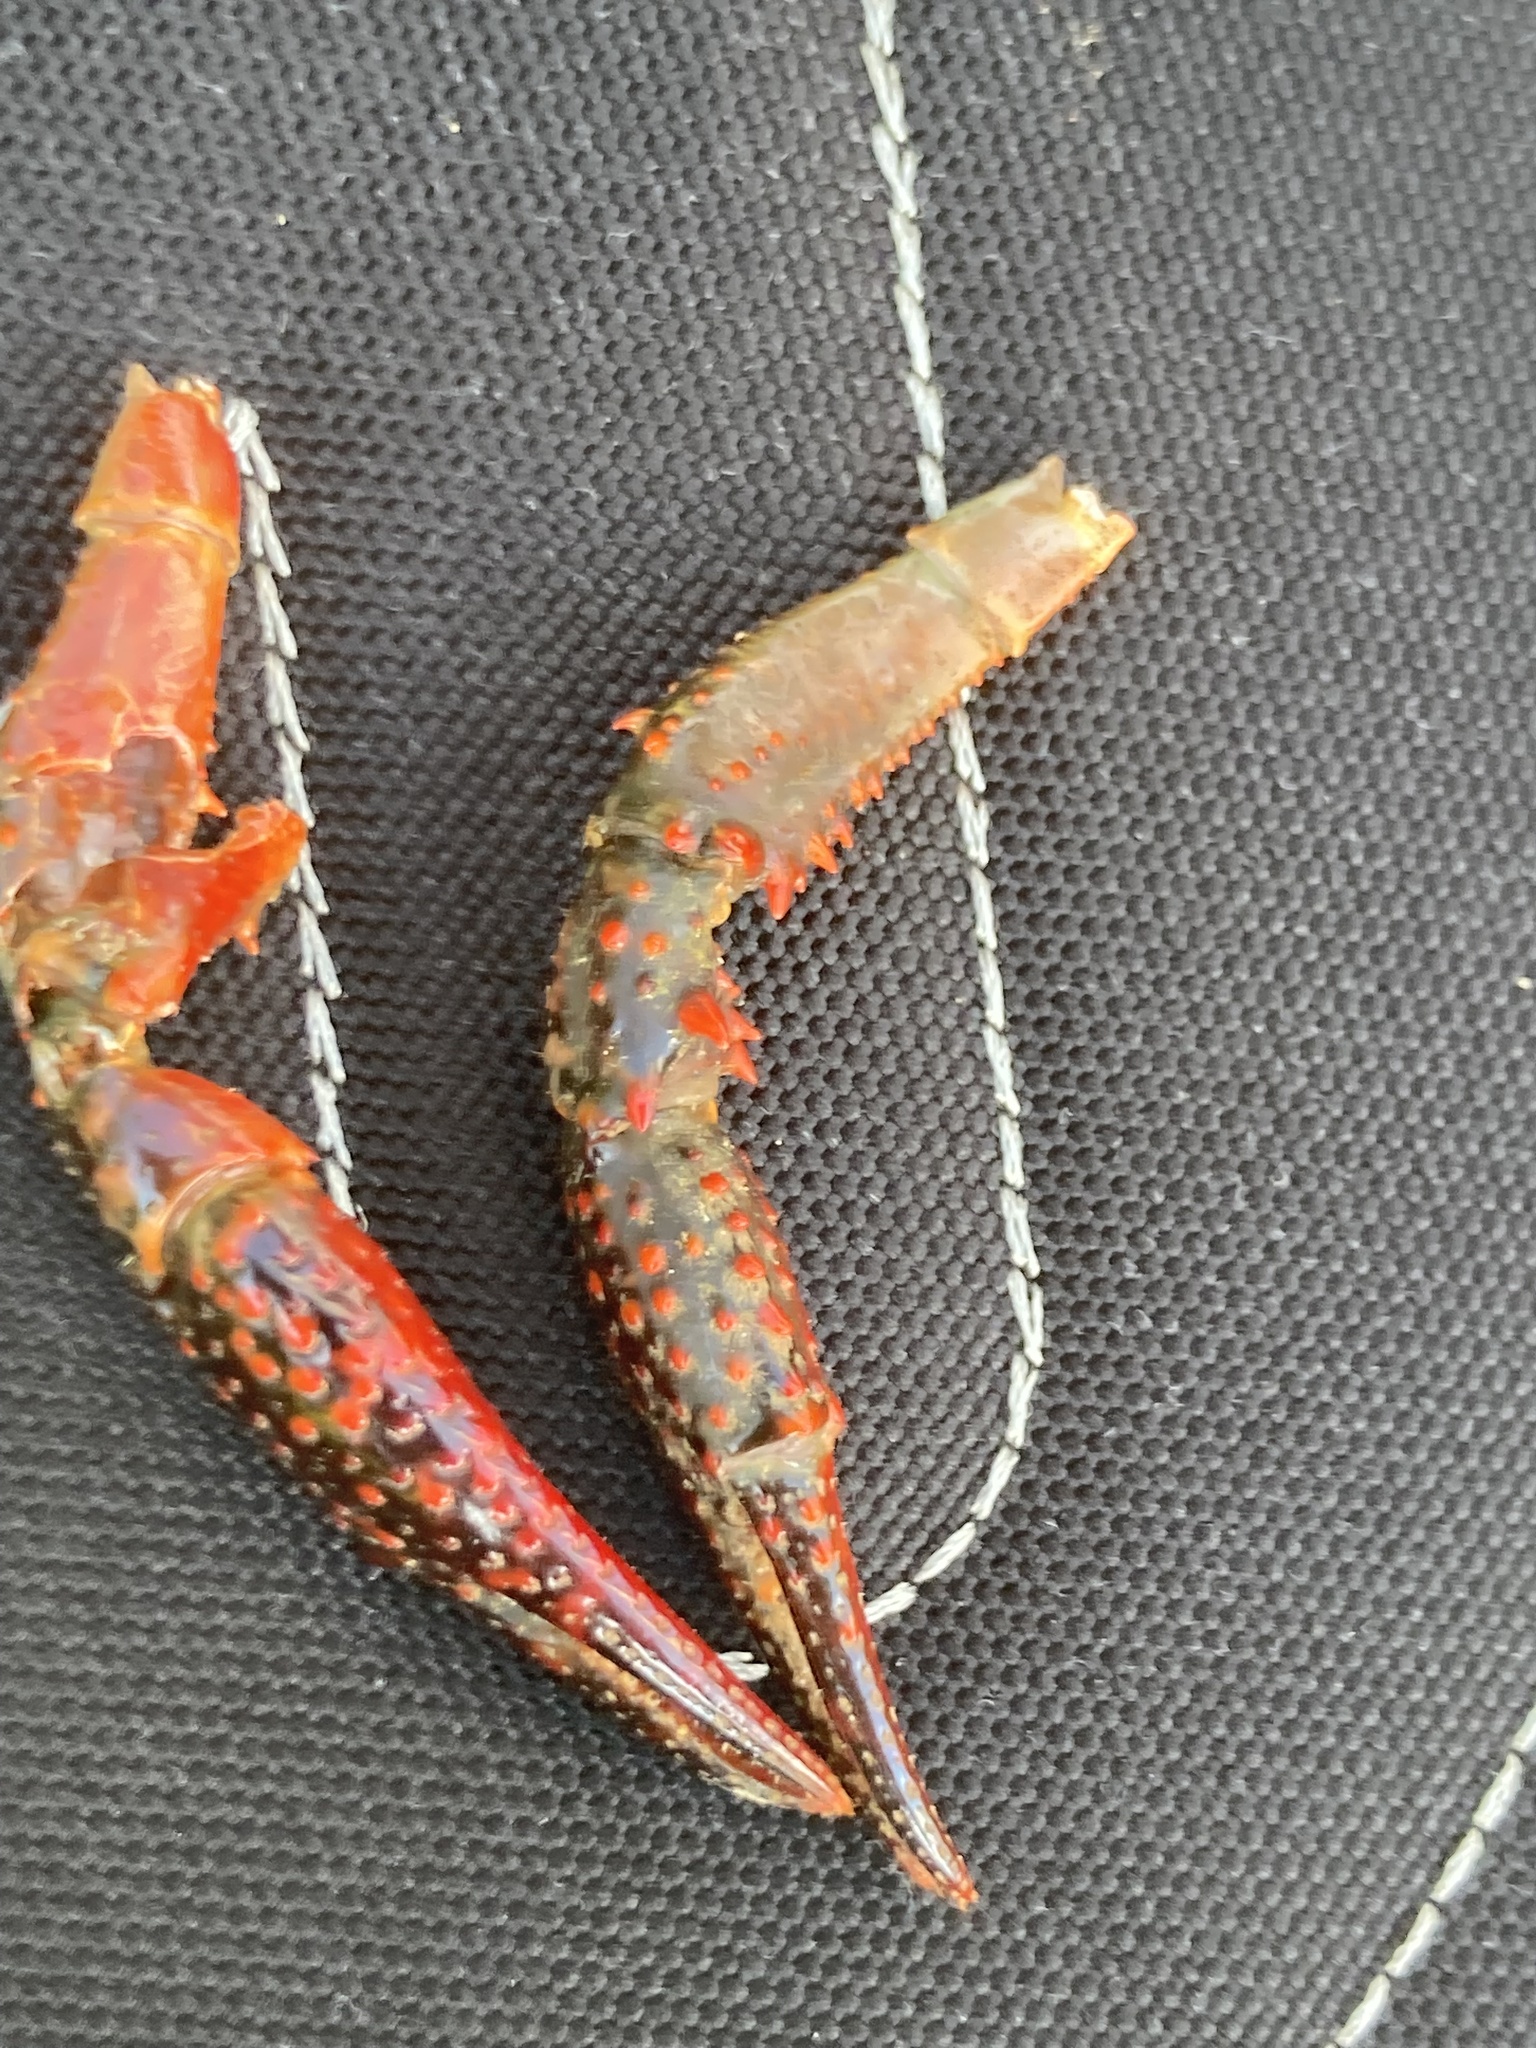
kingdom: Animalia
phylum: Arthropoda
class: Malacostraca
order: Decapoda
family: Cambaridae
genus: Procambarus
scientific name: Procambarus clarkii
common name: Red swamp crayfish
